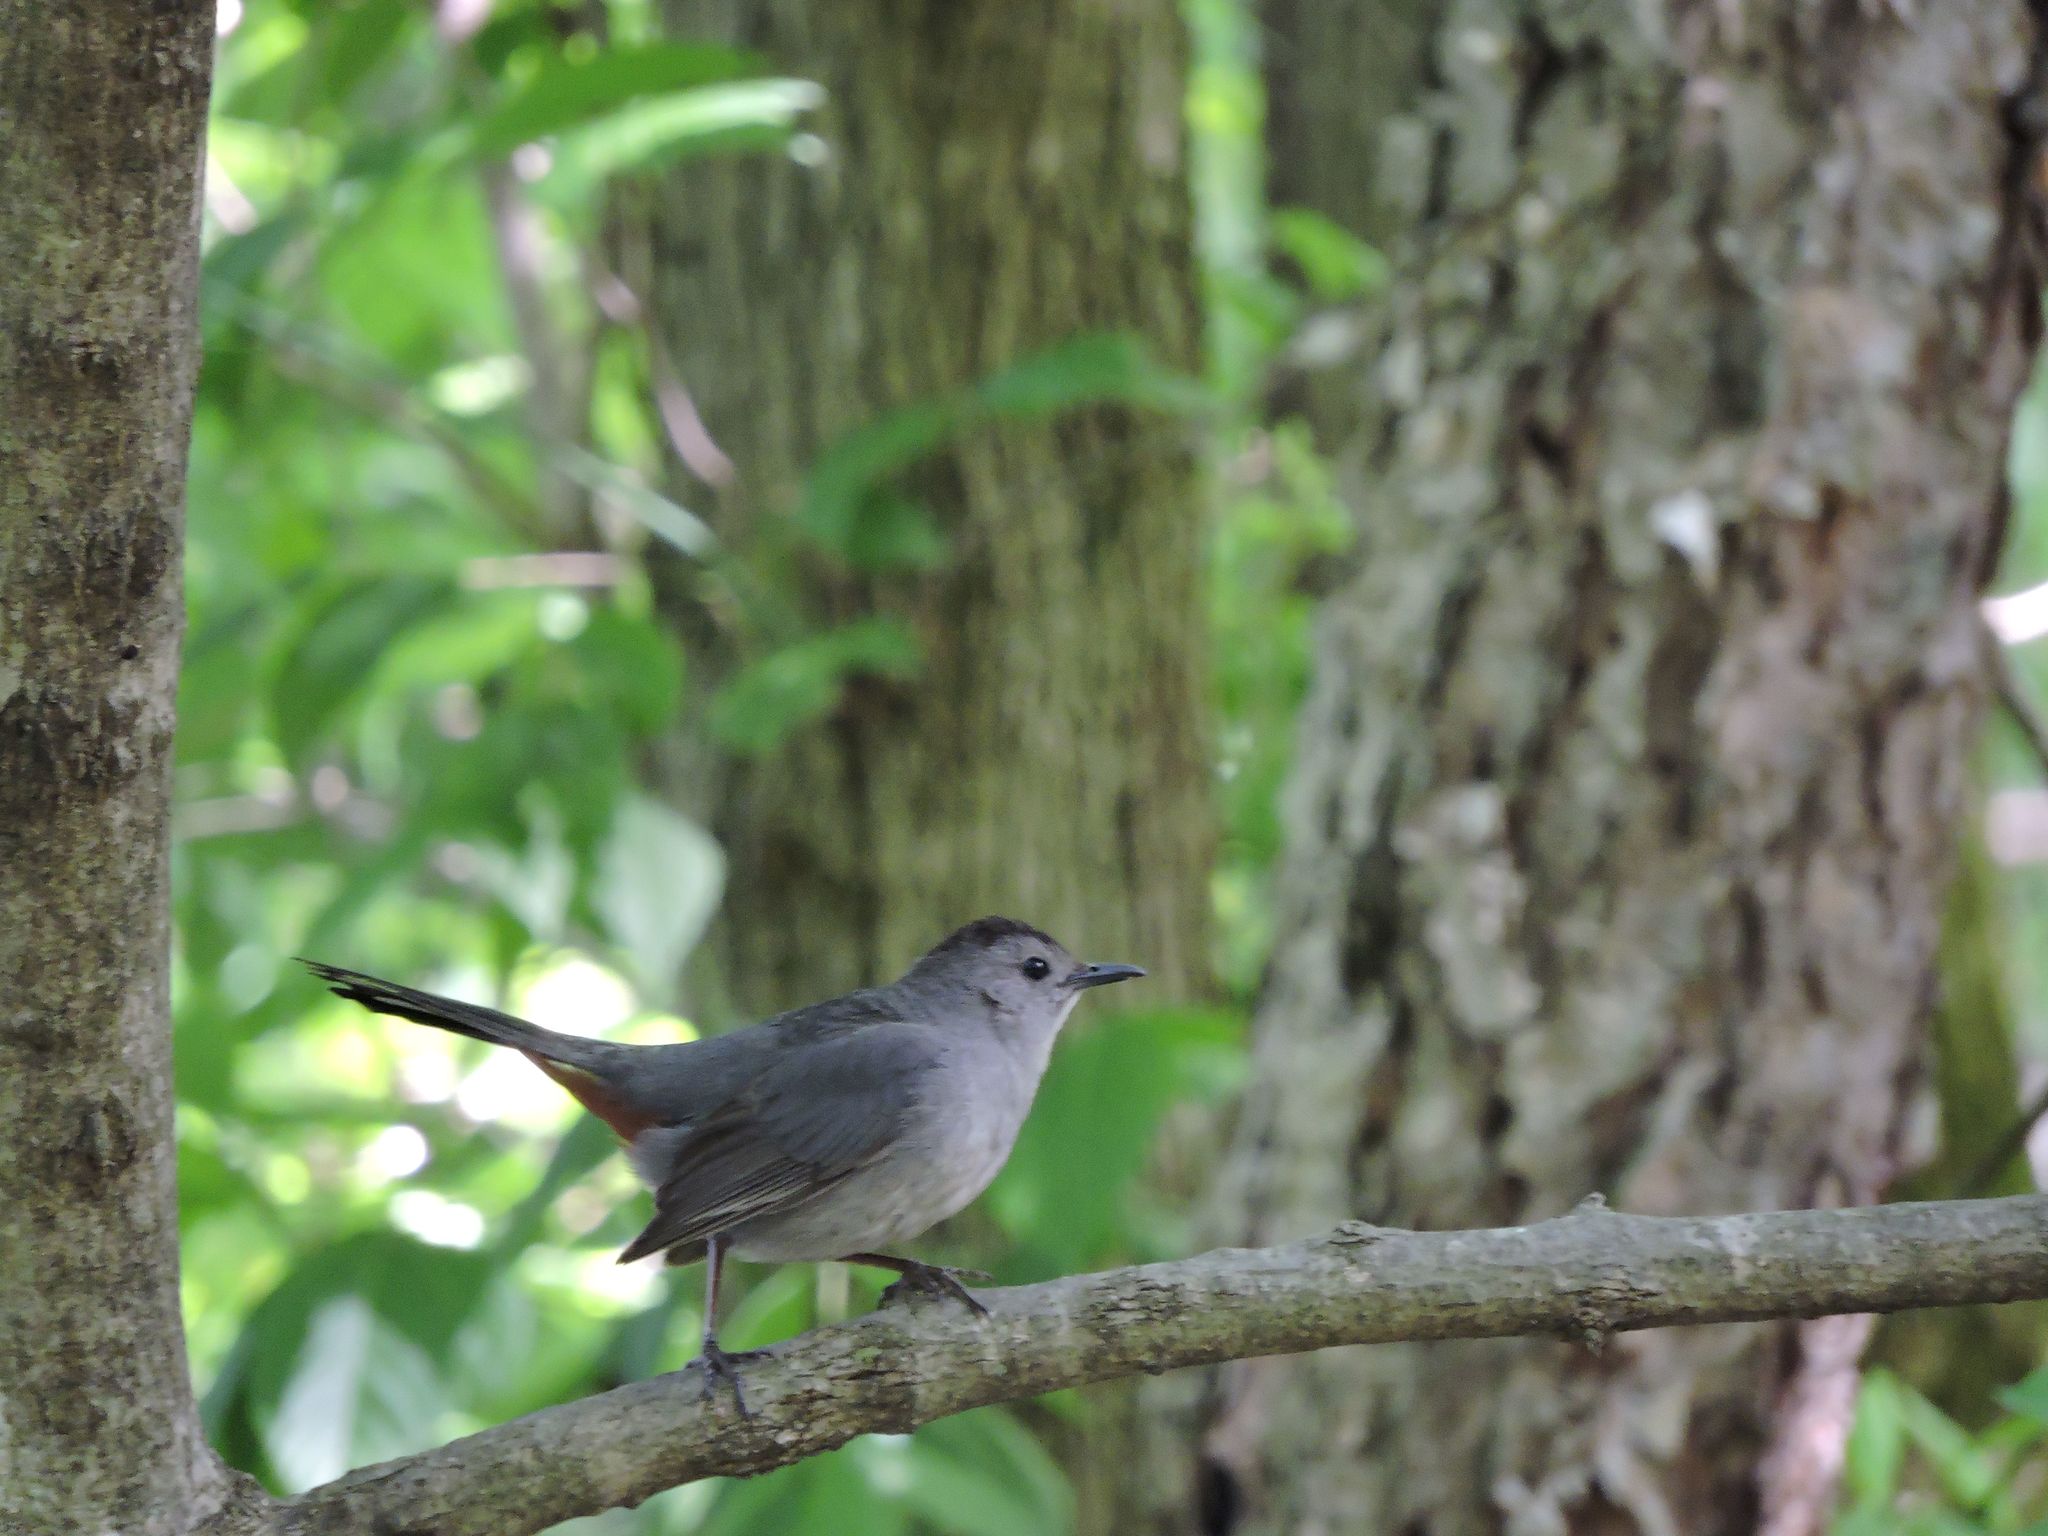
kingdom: Animalia
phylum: Chordata
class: Aves
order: Passeriformes
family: Mimidae
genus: Dumetella
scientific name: Dumetella carolinensis
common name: Gray catbird
